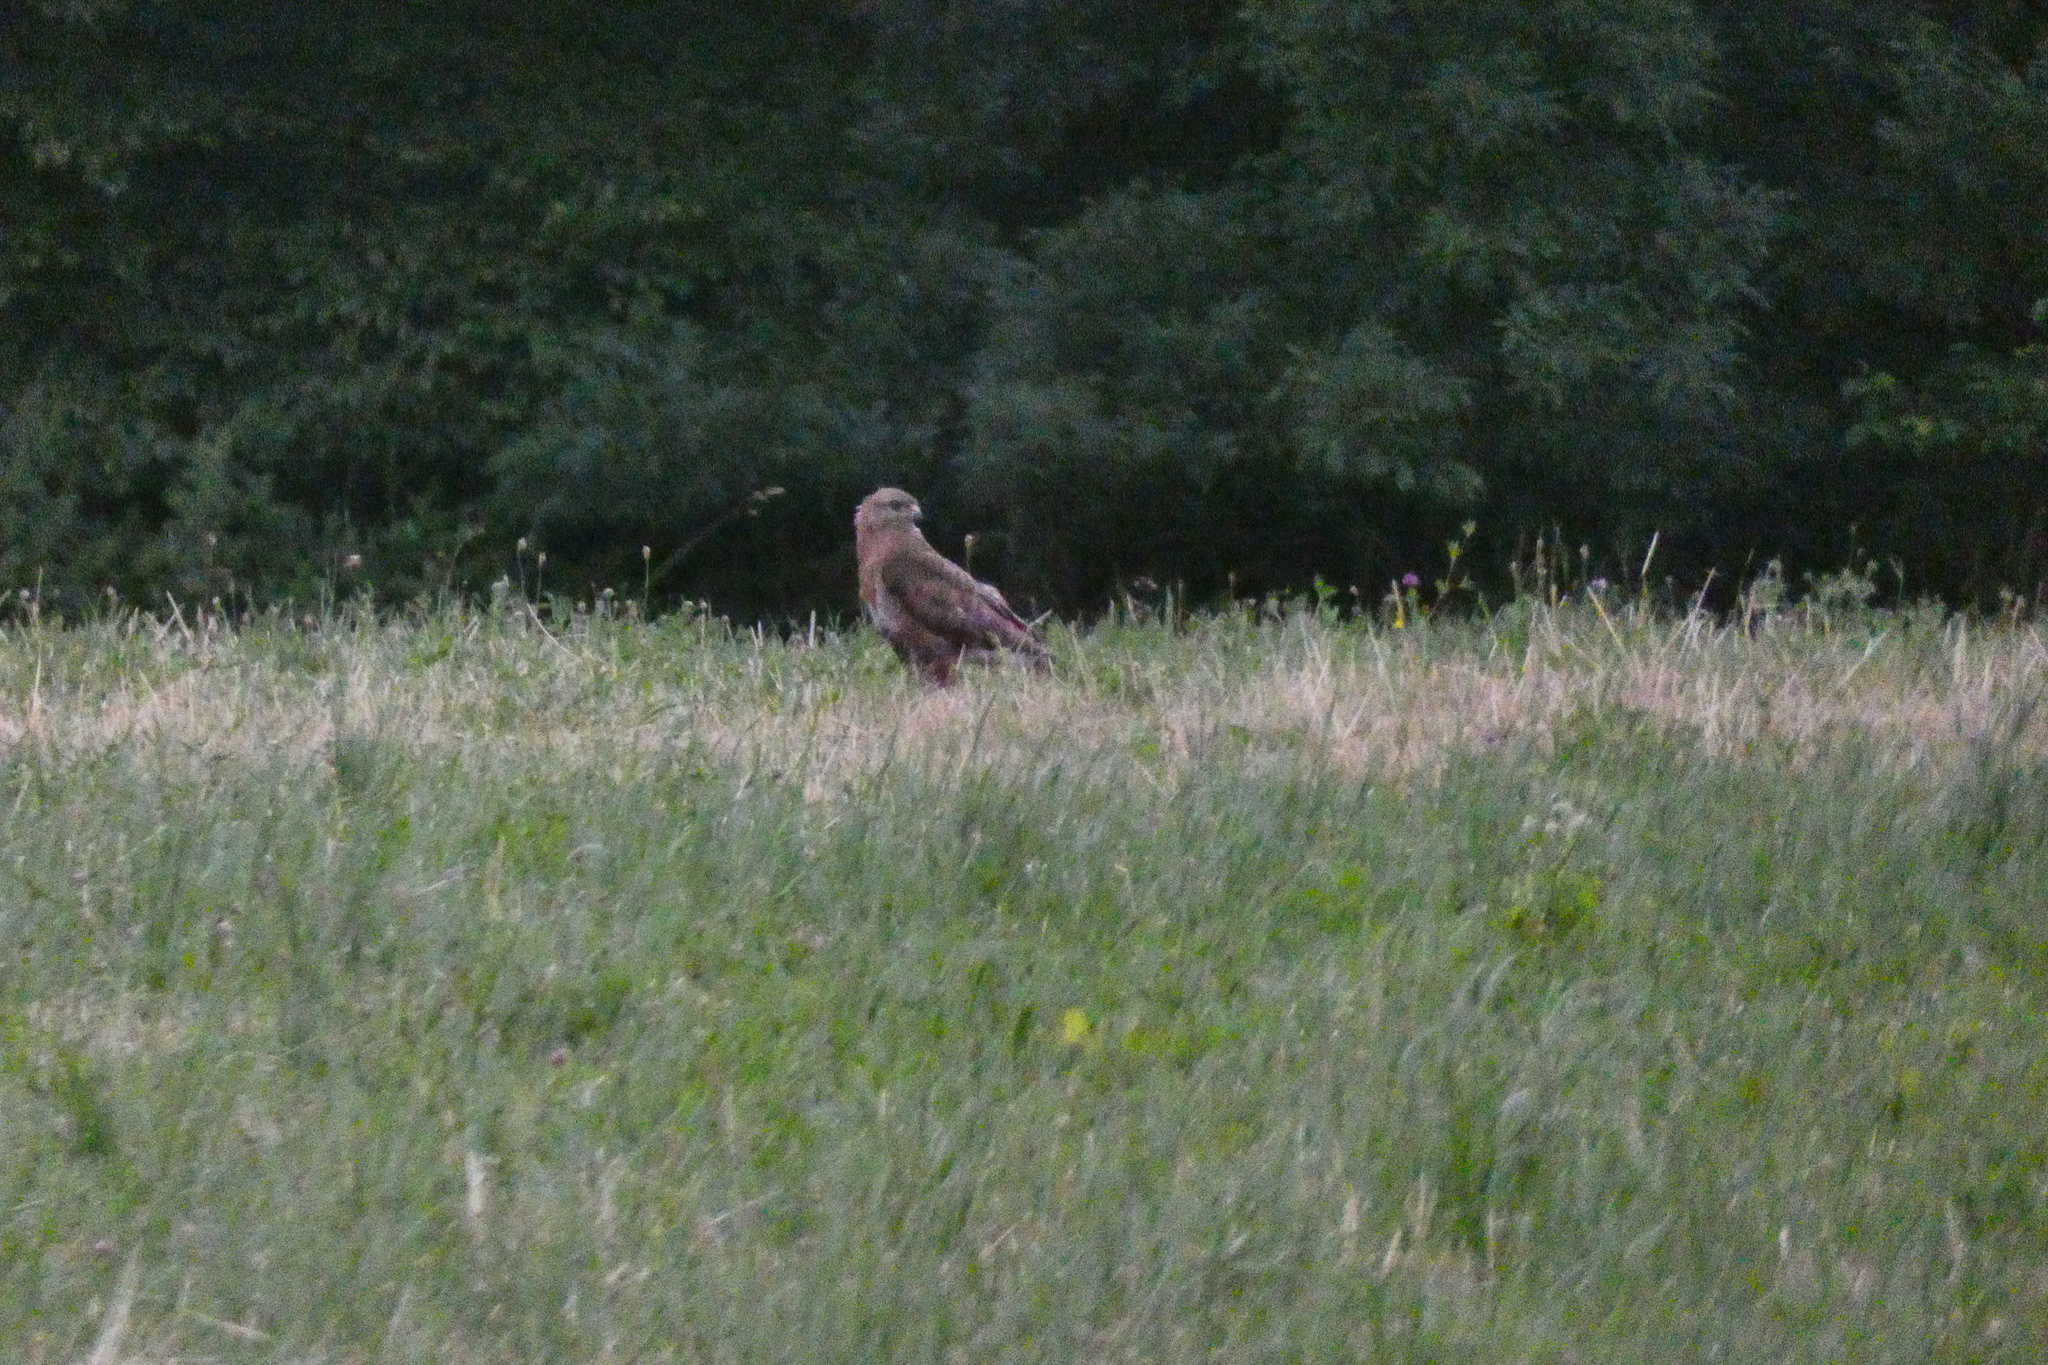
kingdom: Animalia
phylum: Chordata
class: Aves
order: Accipitriformes
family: Accipitridae
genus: Buteo
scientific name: Buteo buteo
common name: Common buzzard
